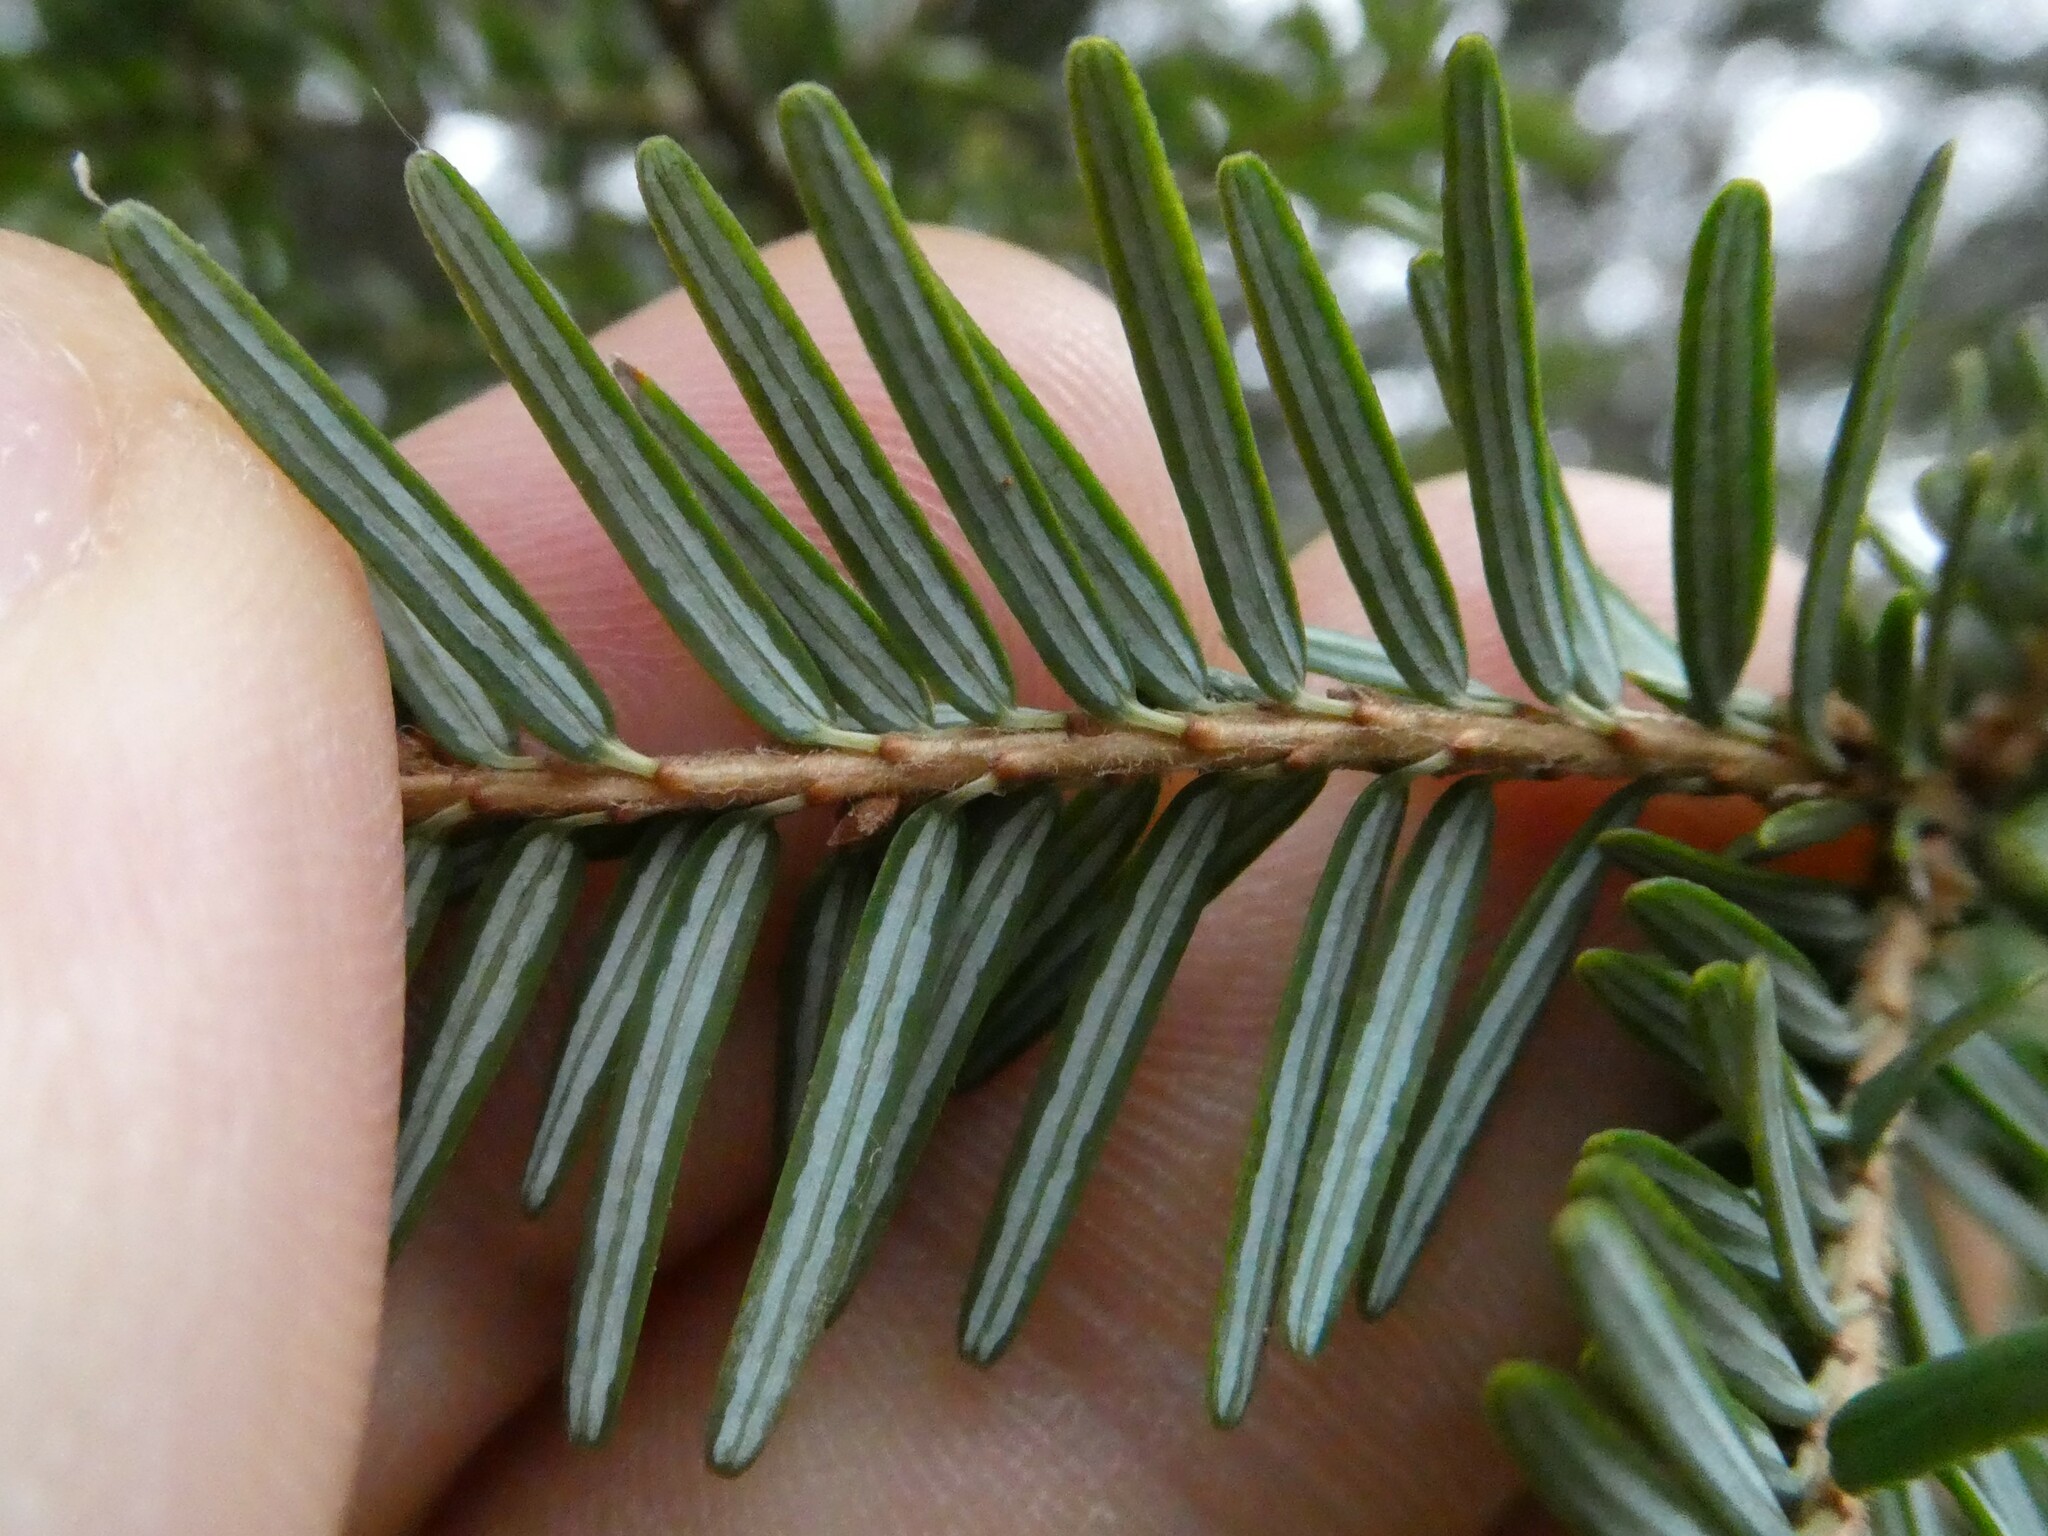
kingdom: Plantae
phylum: Tracheophyta
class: Pinopsida
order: Pinales
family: Pinaceae
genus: Tsuga
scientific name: Tsuga canadensis
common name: Eastern hemlock
